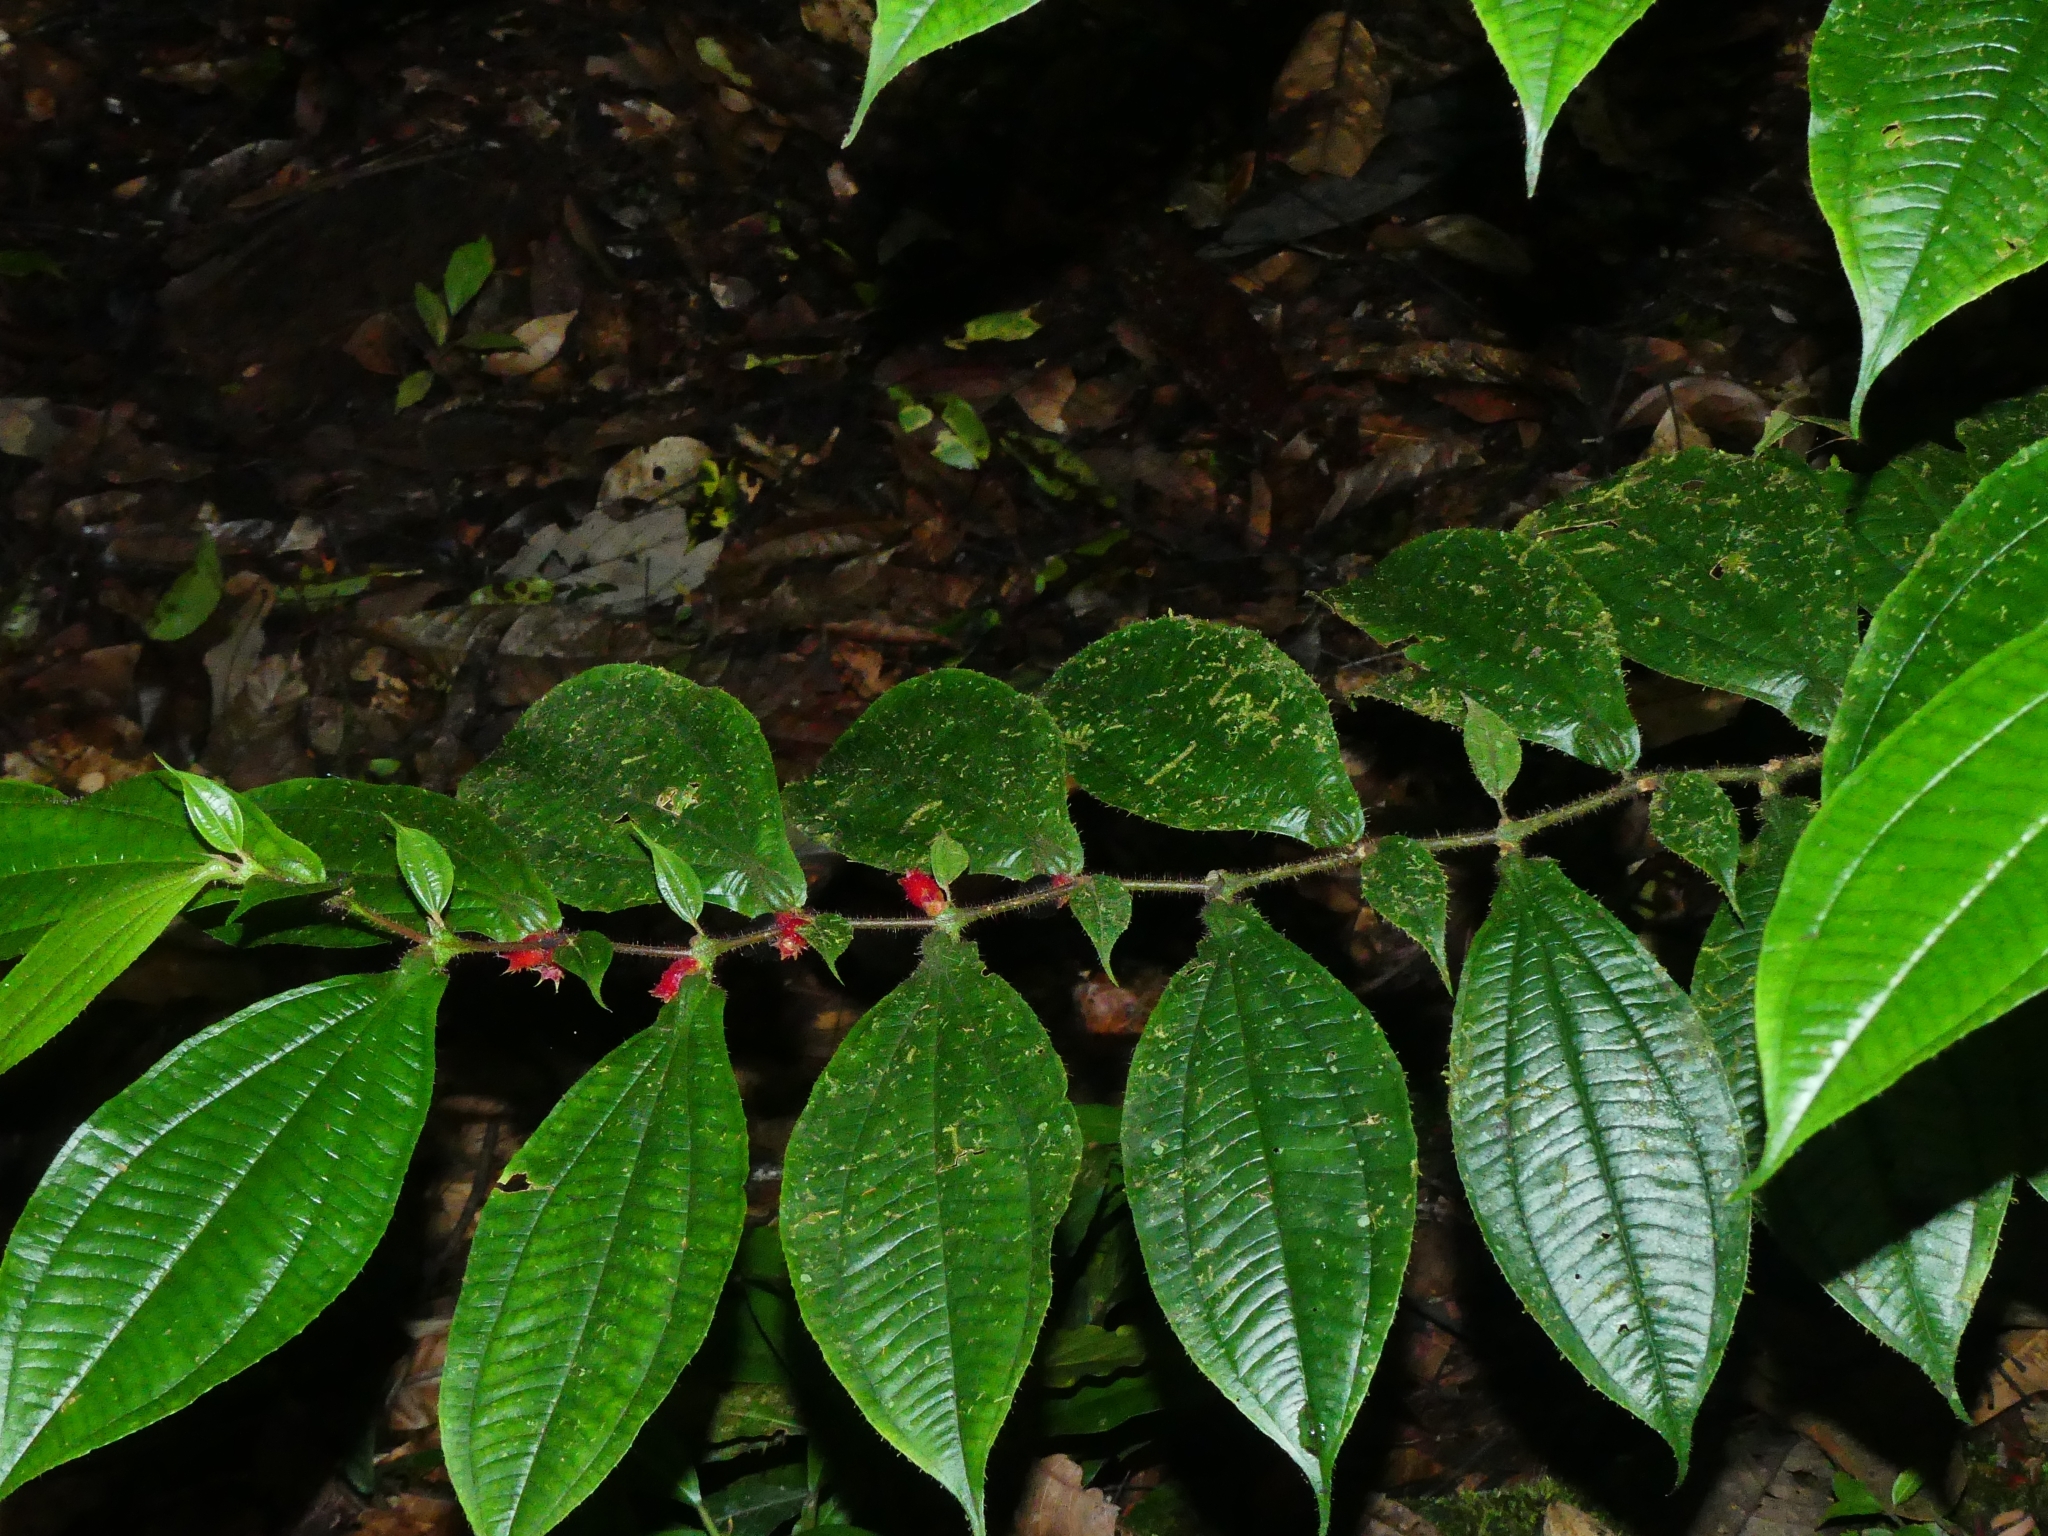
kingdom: Plantae
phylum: Tracheophyta
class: Magnoliopsida
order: Myrtales
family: Melastomataceae
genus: Miconia
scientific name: Miconia mayeta
